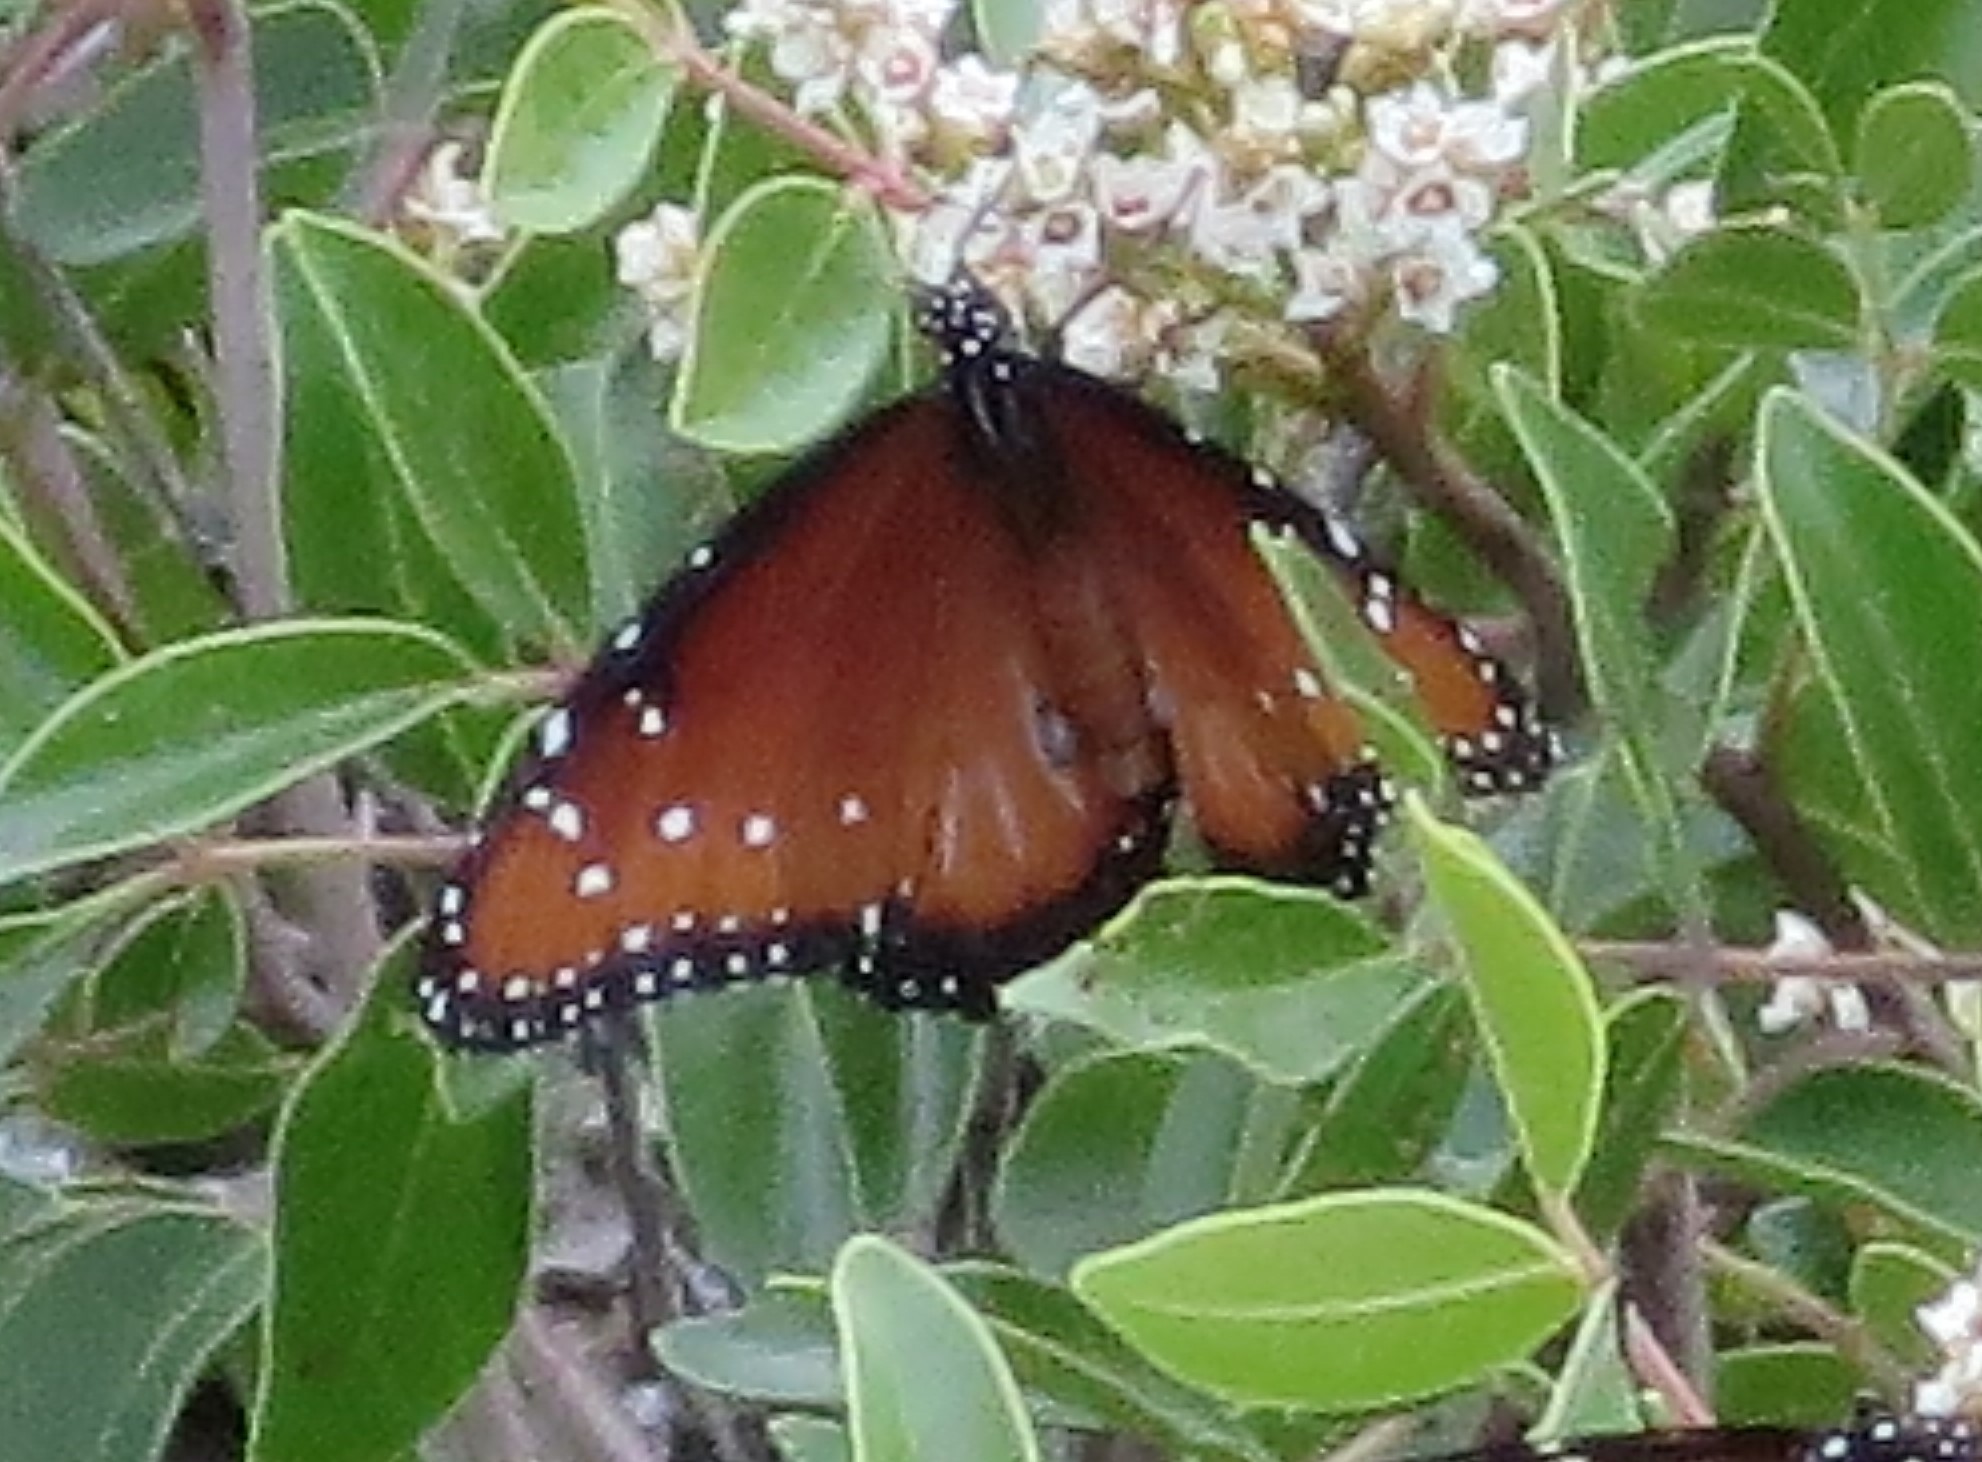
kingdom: Animalia
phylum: Arthropoda
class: Insecta
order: Lepidoptera
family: Nymphalidae
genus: Danaus
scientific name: Danaus gilippus
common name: Queen
